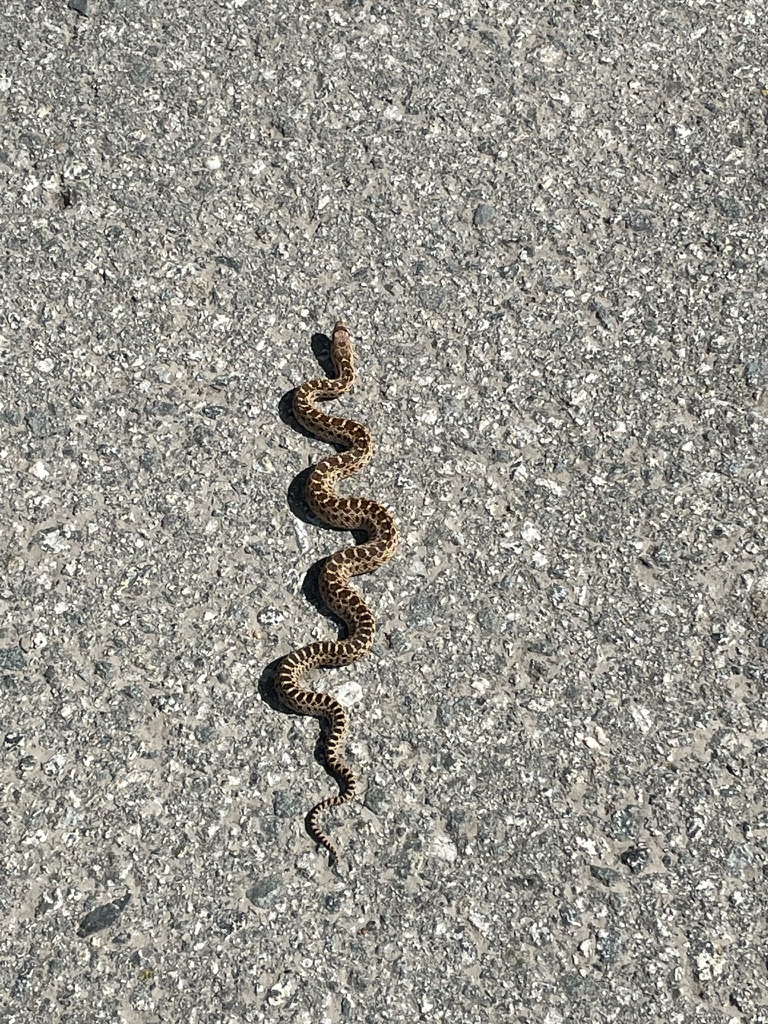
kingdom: Animalia
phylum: Chordata
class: Squamata
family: Colubridae
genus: Pituophis
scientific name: Pituophis catenifer
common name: Gopher snake
